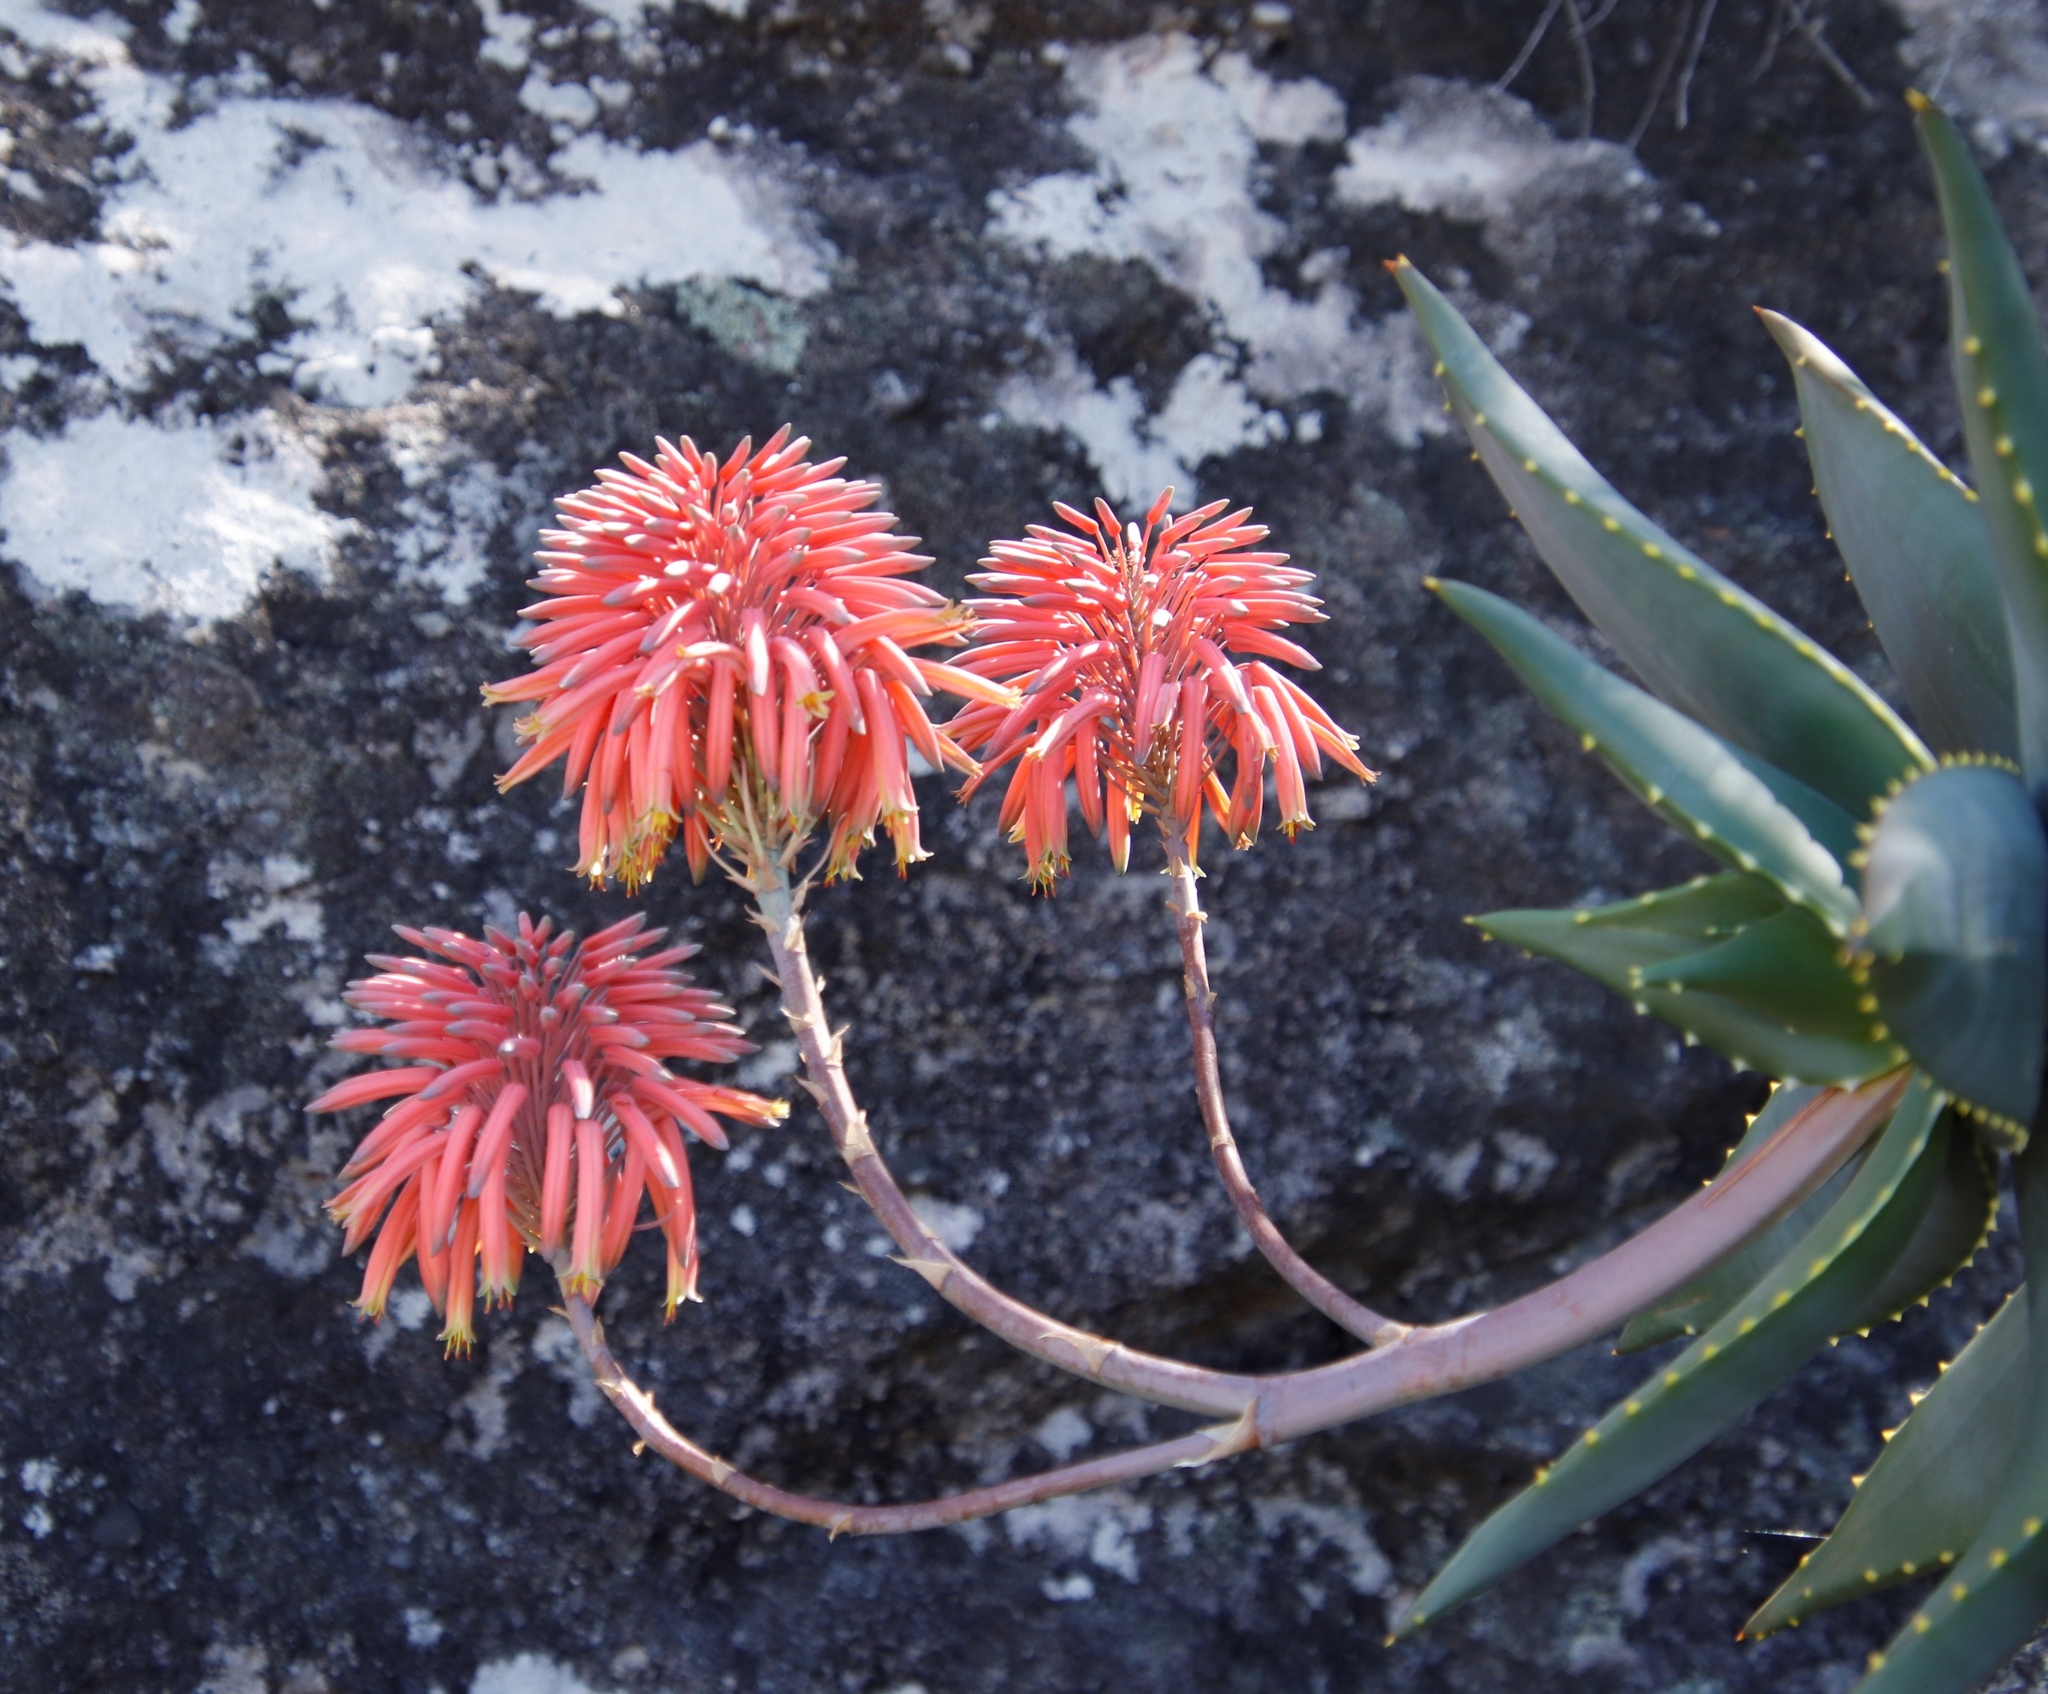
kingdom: Plantae
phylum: Tracheophyta
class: Liliopsida
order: Asparagales
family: Asphodelaceae
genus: Aloe
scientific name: Aloe perfoliata
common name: Mitra aloe
